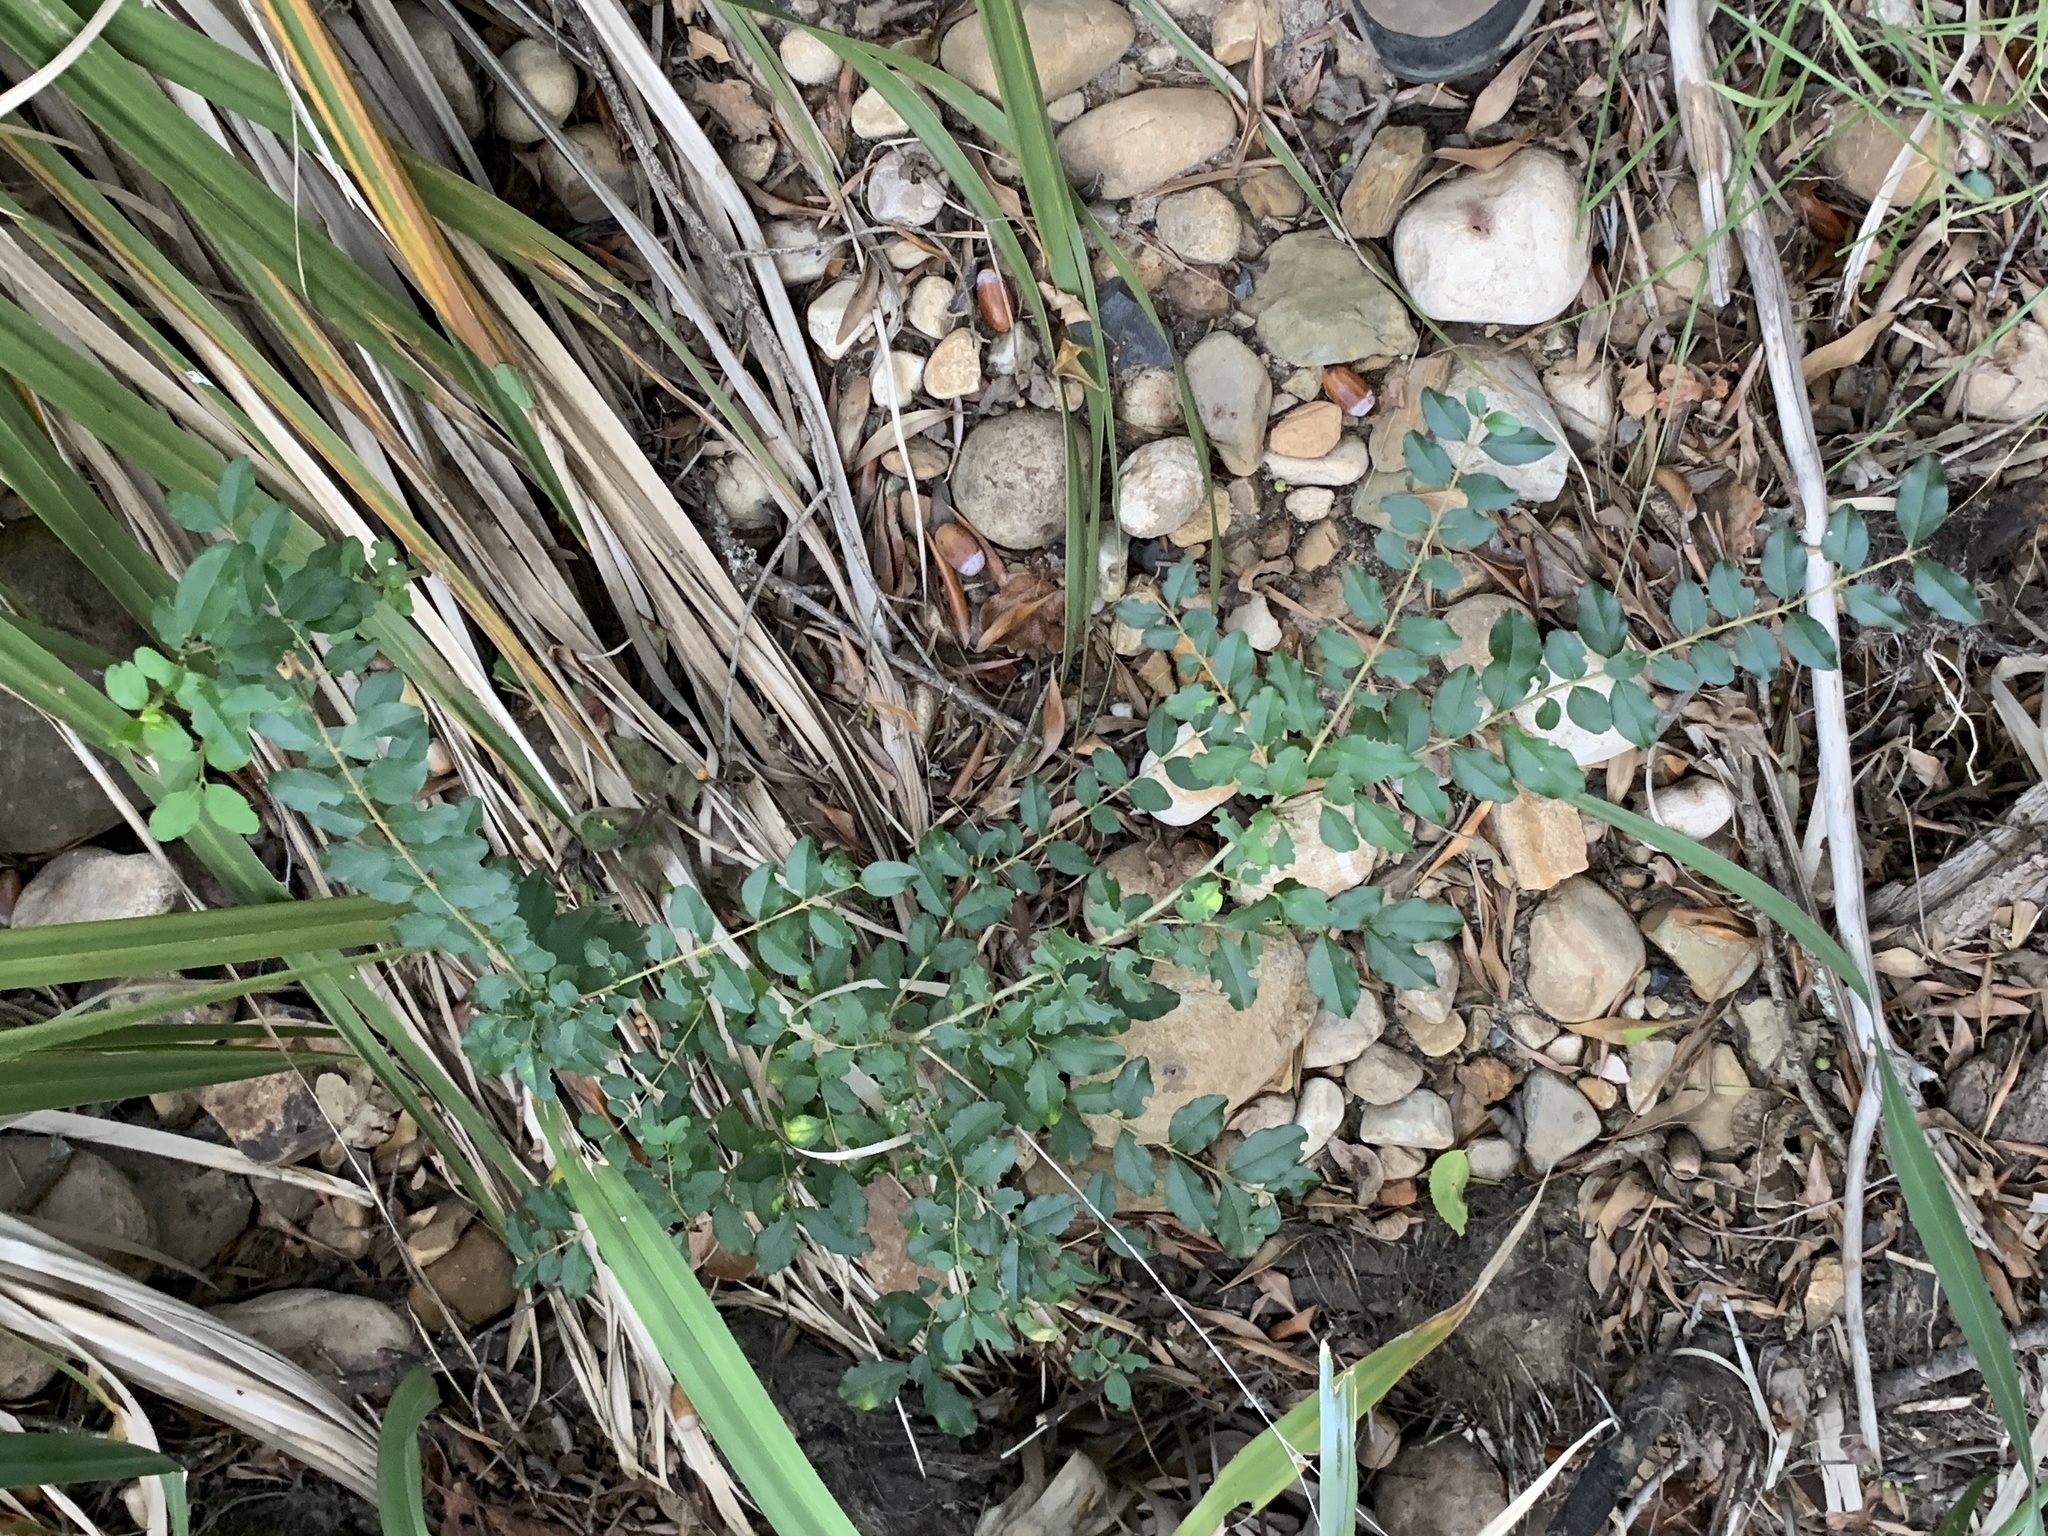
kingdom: Plantae
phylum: Tracheophyta
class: Magnoliopsida
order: Lamiales
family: Oleaceae
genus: Ligustrum
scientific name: Ligustrum sinense
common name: Chinese privet
